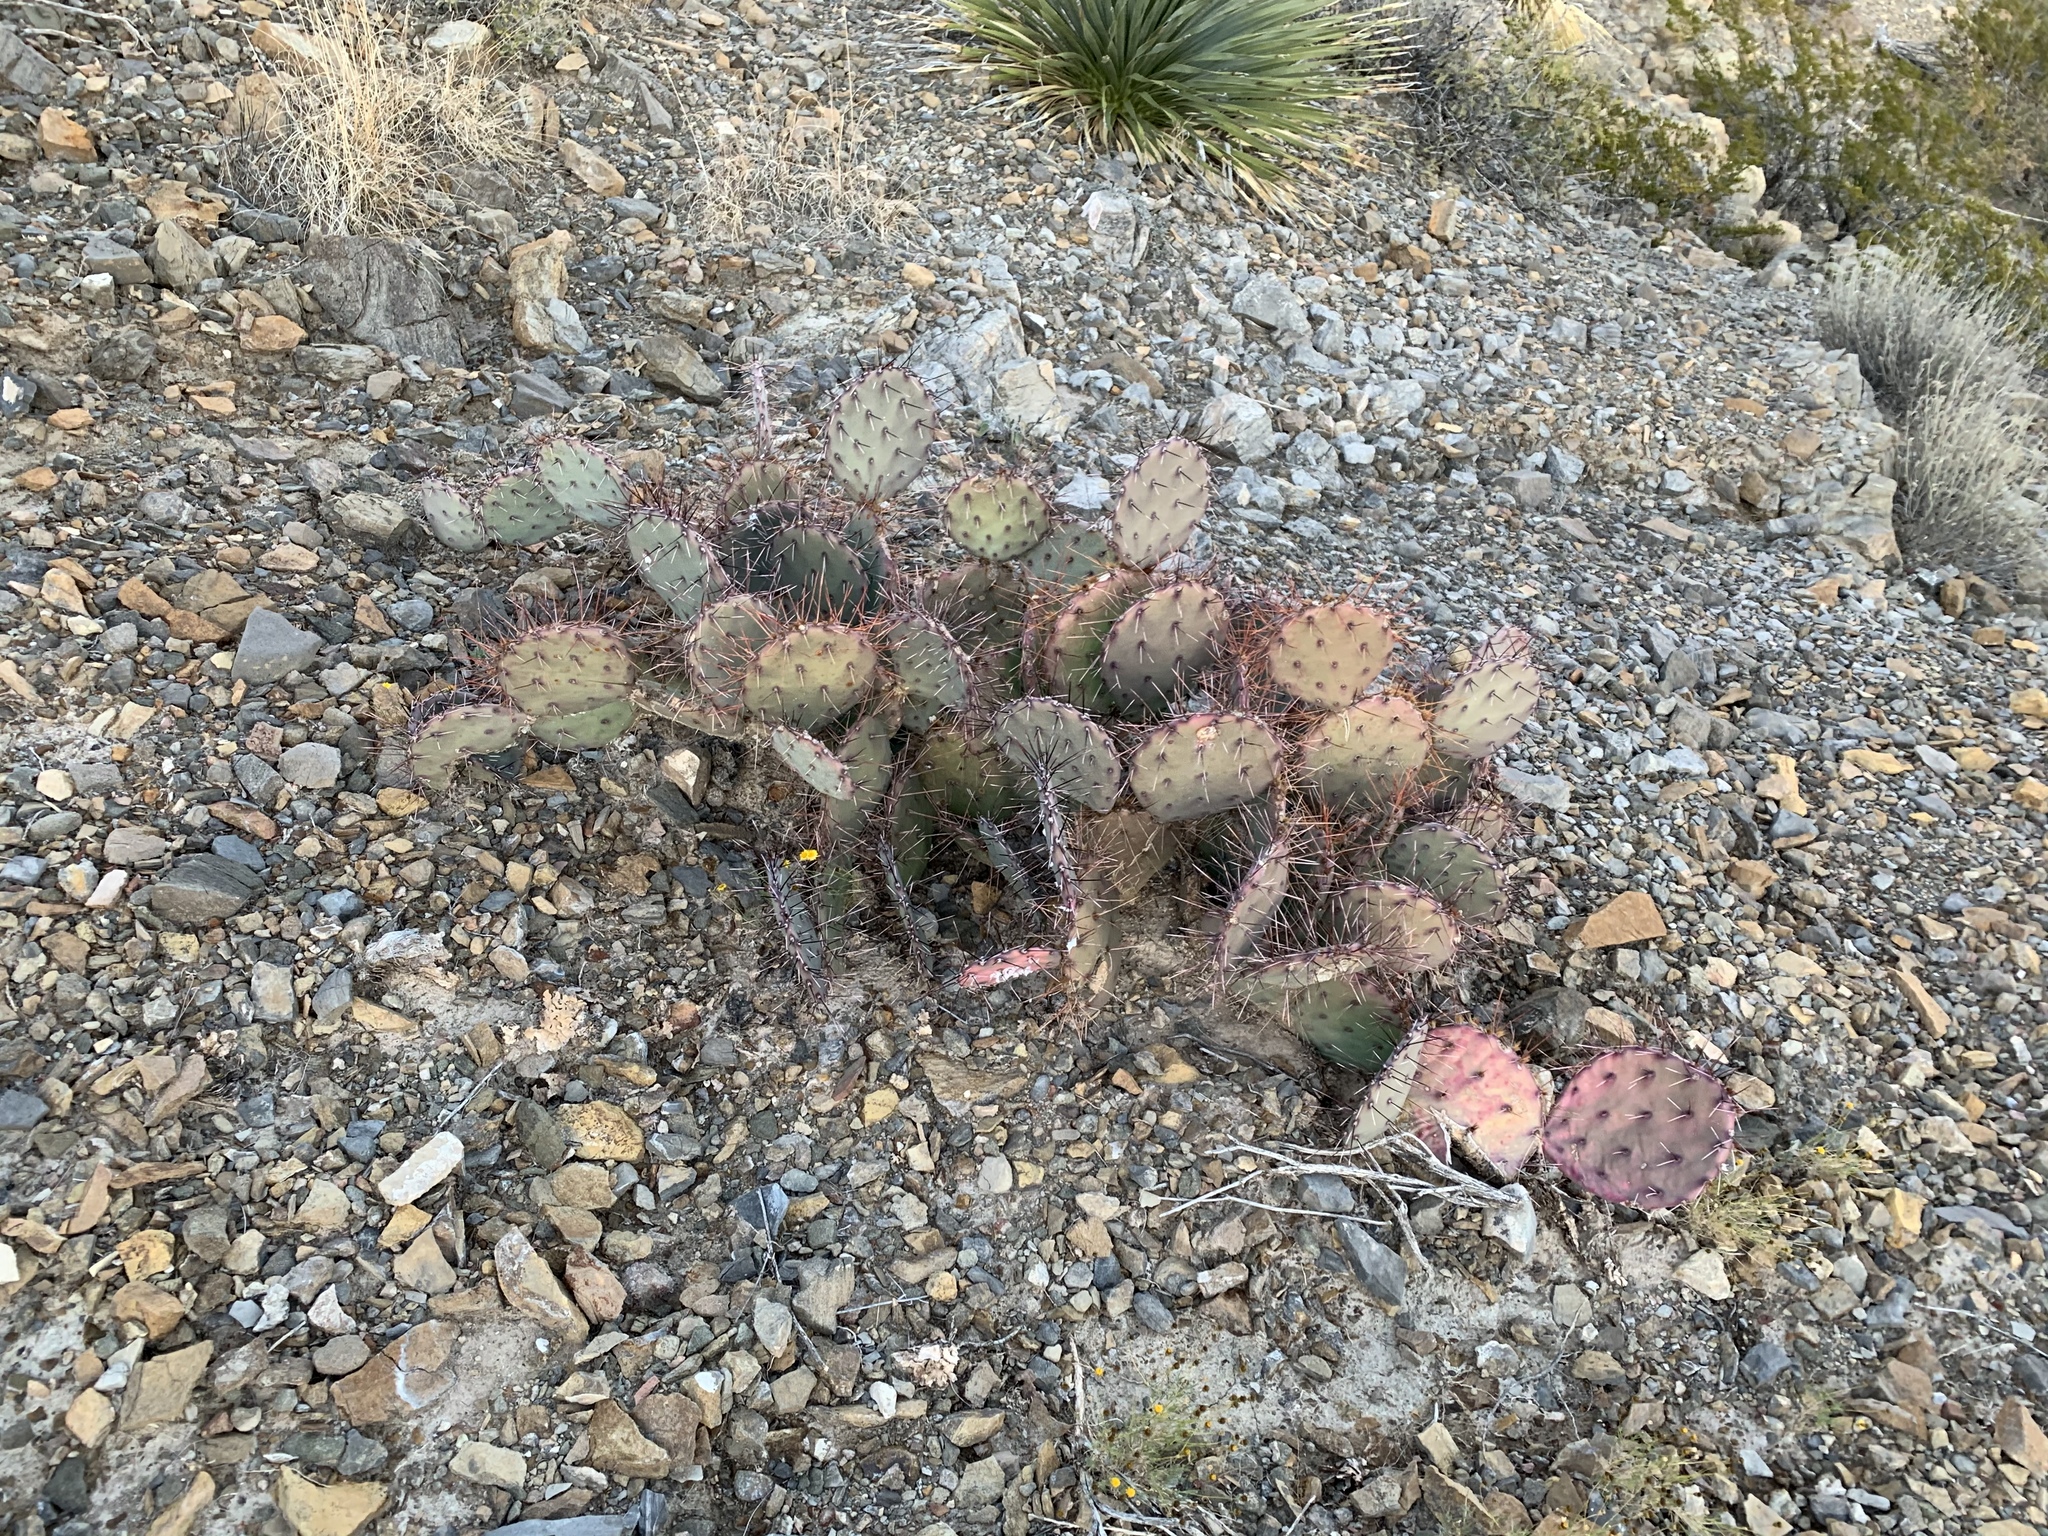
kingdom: Plantae
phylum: Tracheophyta
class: Magnoliopsida
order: Caryophyllales
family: Cactaceae
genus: Opuntia
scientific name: Opuntia phaeacantha
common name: New mexico prickly-pear
